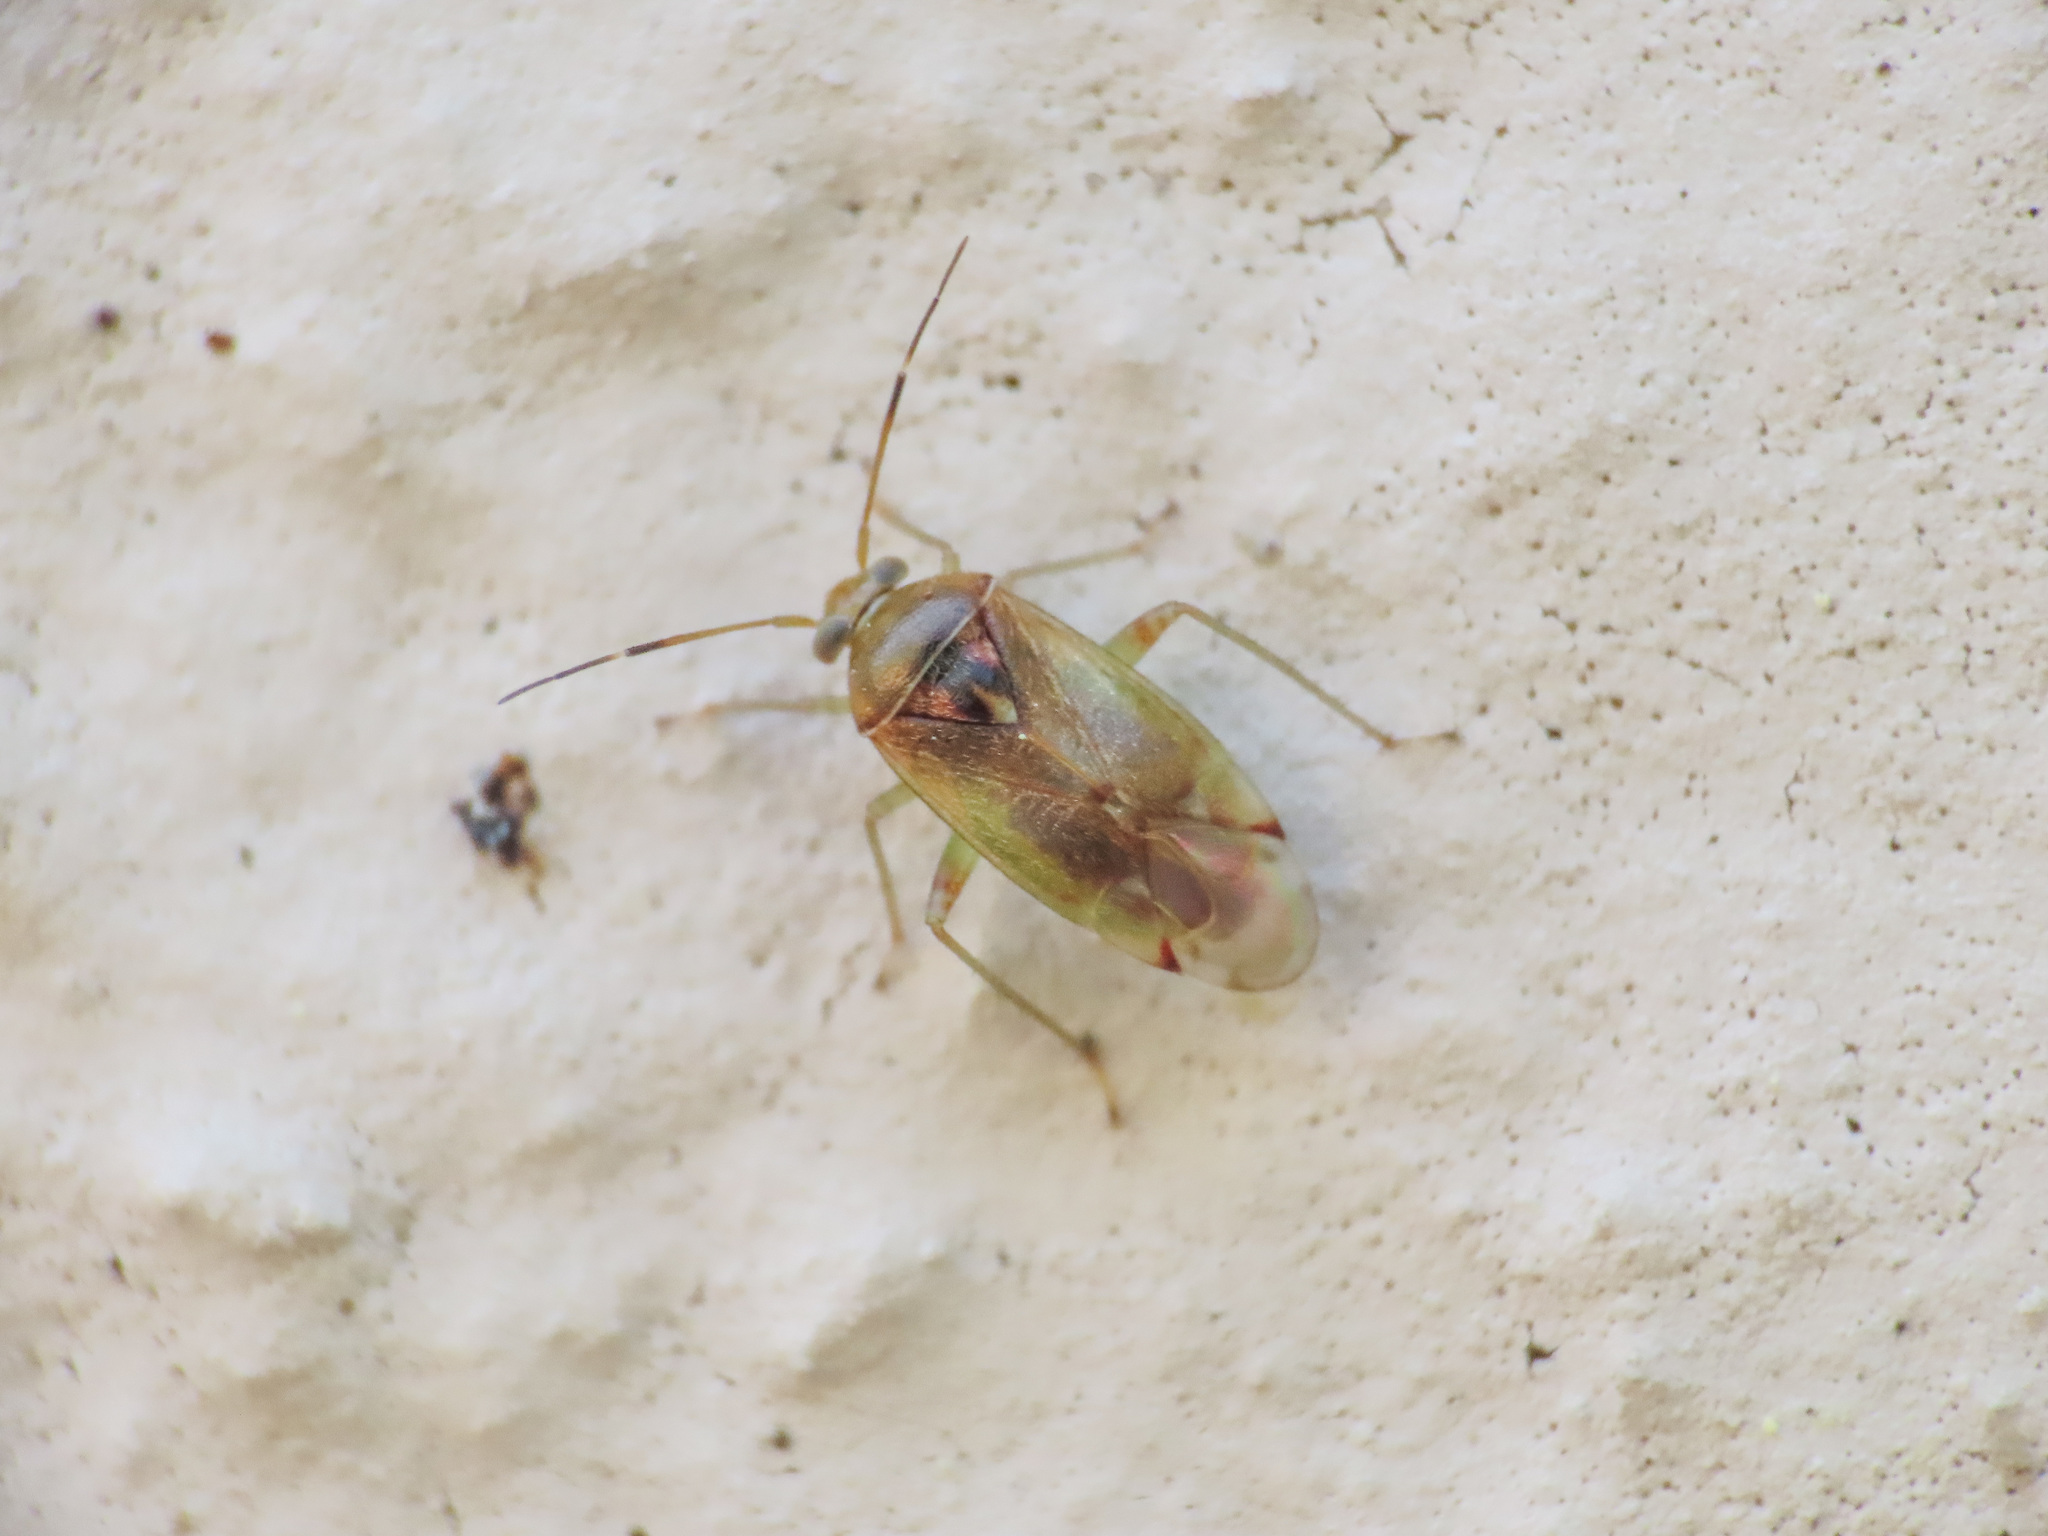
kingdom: Animalia
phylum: Arthropoda
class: Insecta
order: Hemiptera
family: Miridae
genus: Pinalitus
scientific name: Pinalitus cervinus
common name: Plant bug
